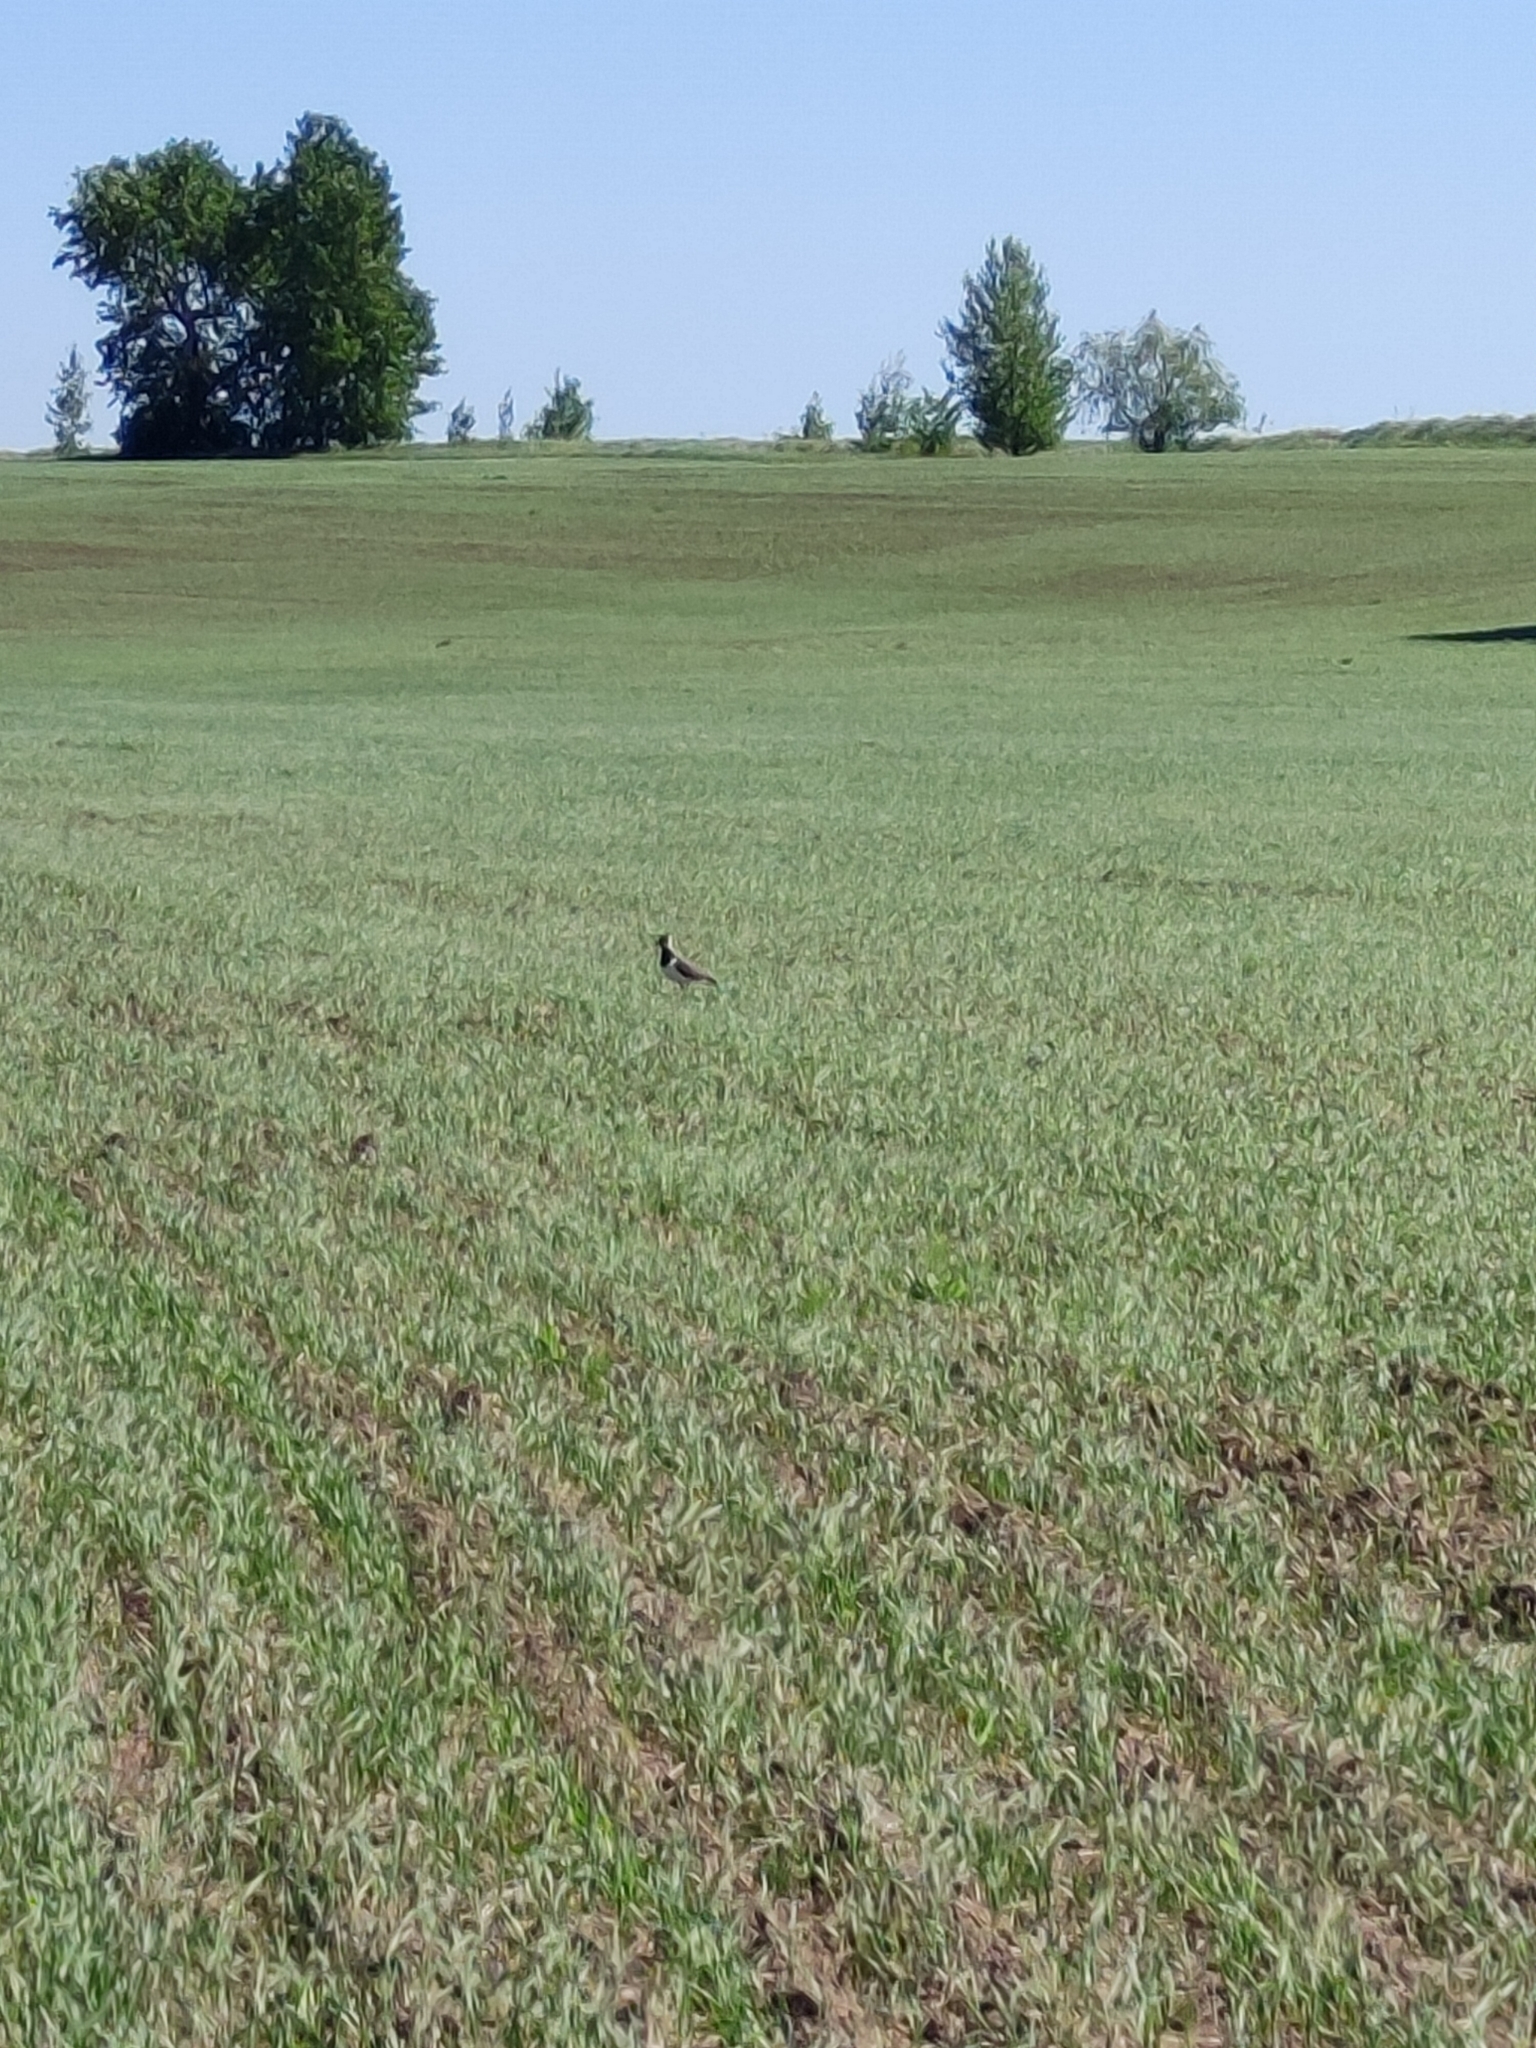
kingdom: Animalia
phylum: Chordata
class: Aves
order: Charadriiformes
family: Charadriidae
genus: Vanellus
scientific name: Vanellus vanellus
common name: Northern lapwing
